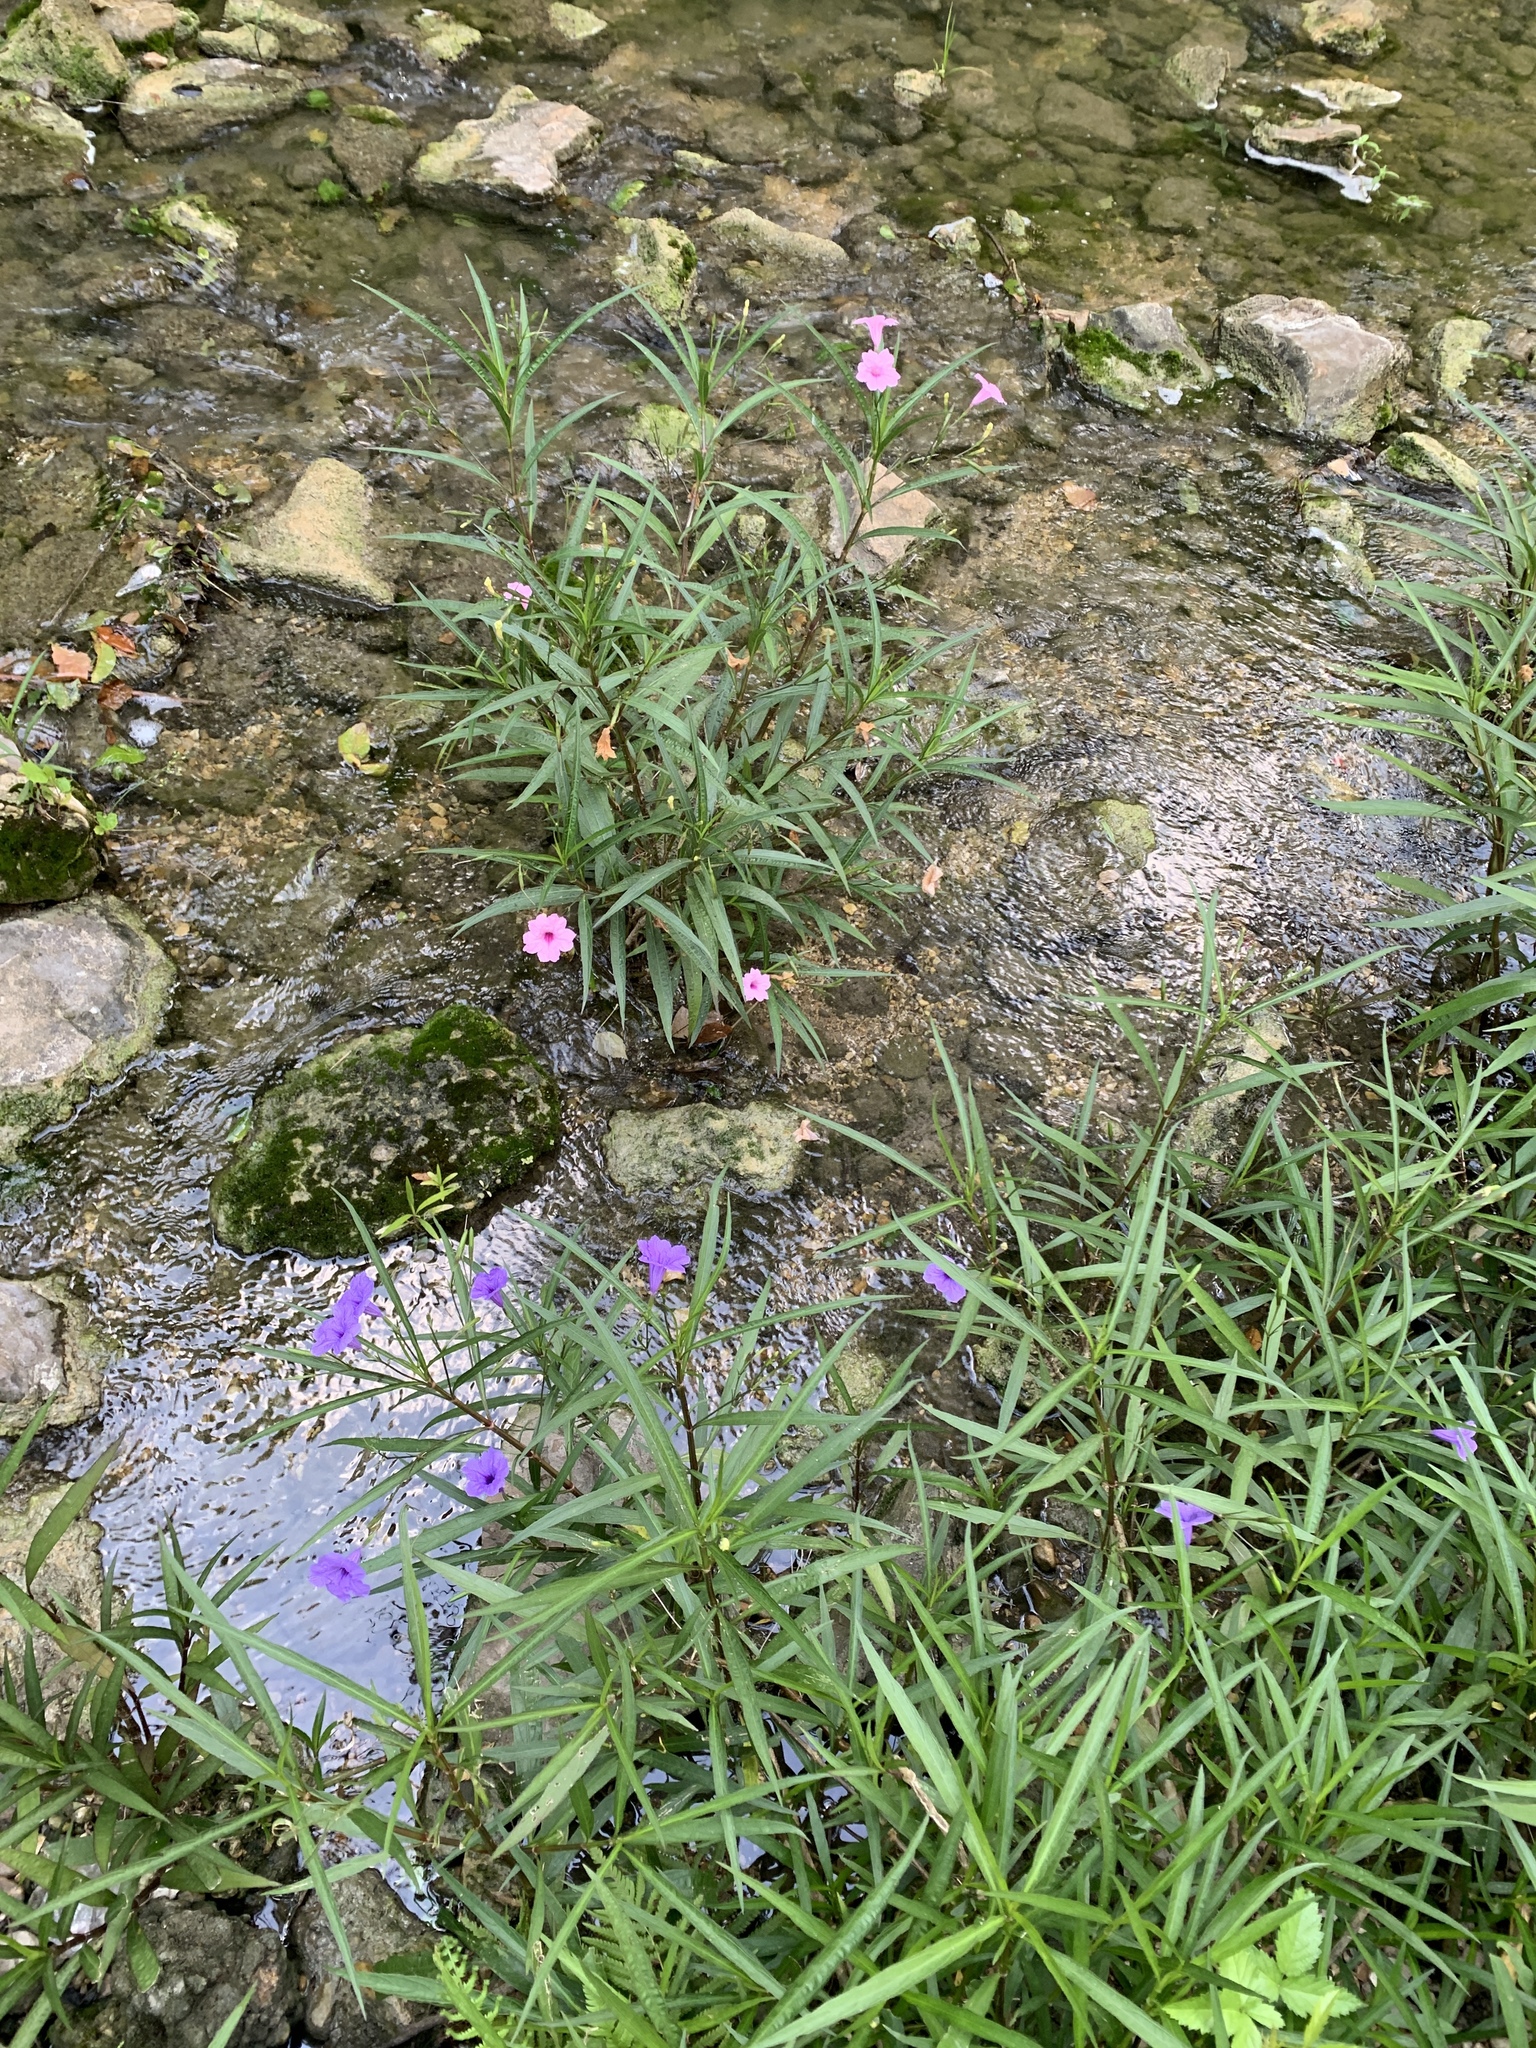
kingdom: Plantae
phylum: Tracheophyta
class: Magnoliopsida
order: Lamiales
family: Acanthaceae
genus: Ruellia
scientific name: Ruellia simplex
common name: Softseed wild petunia
